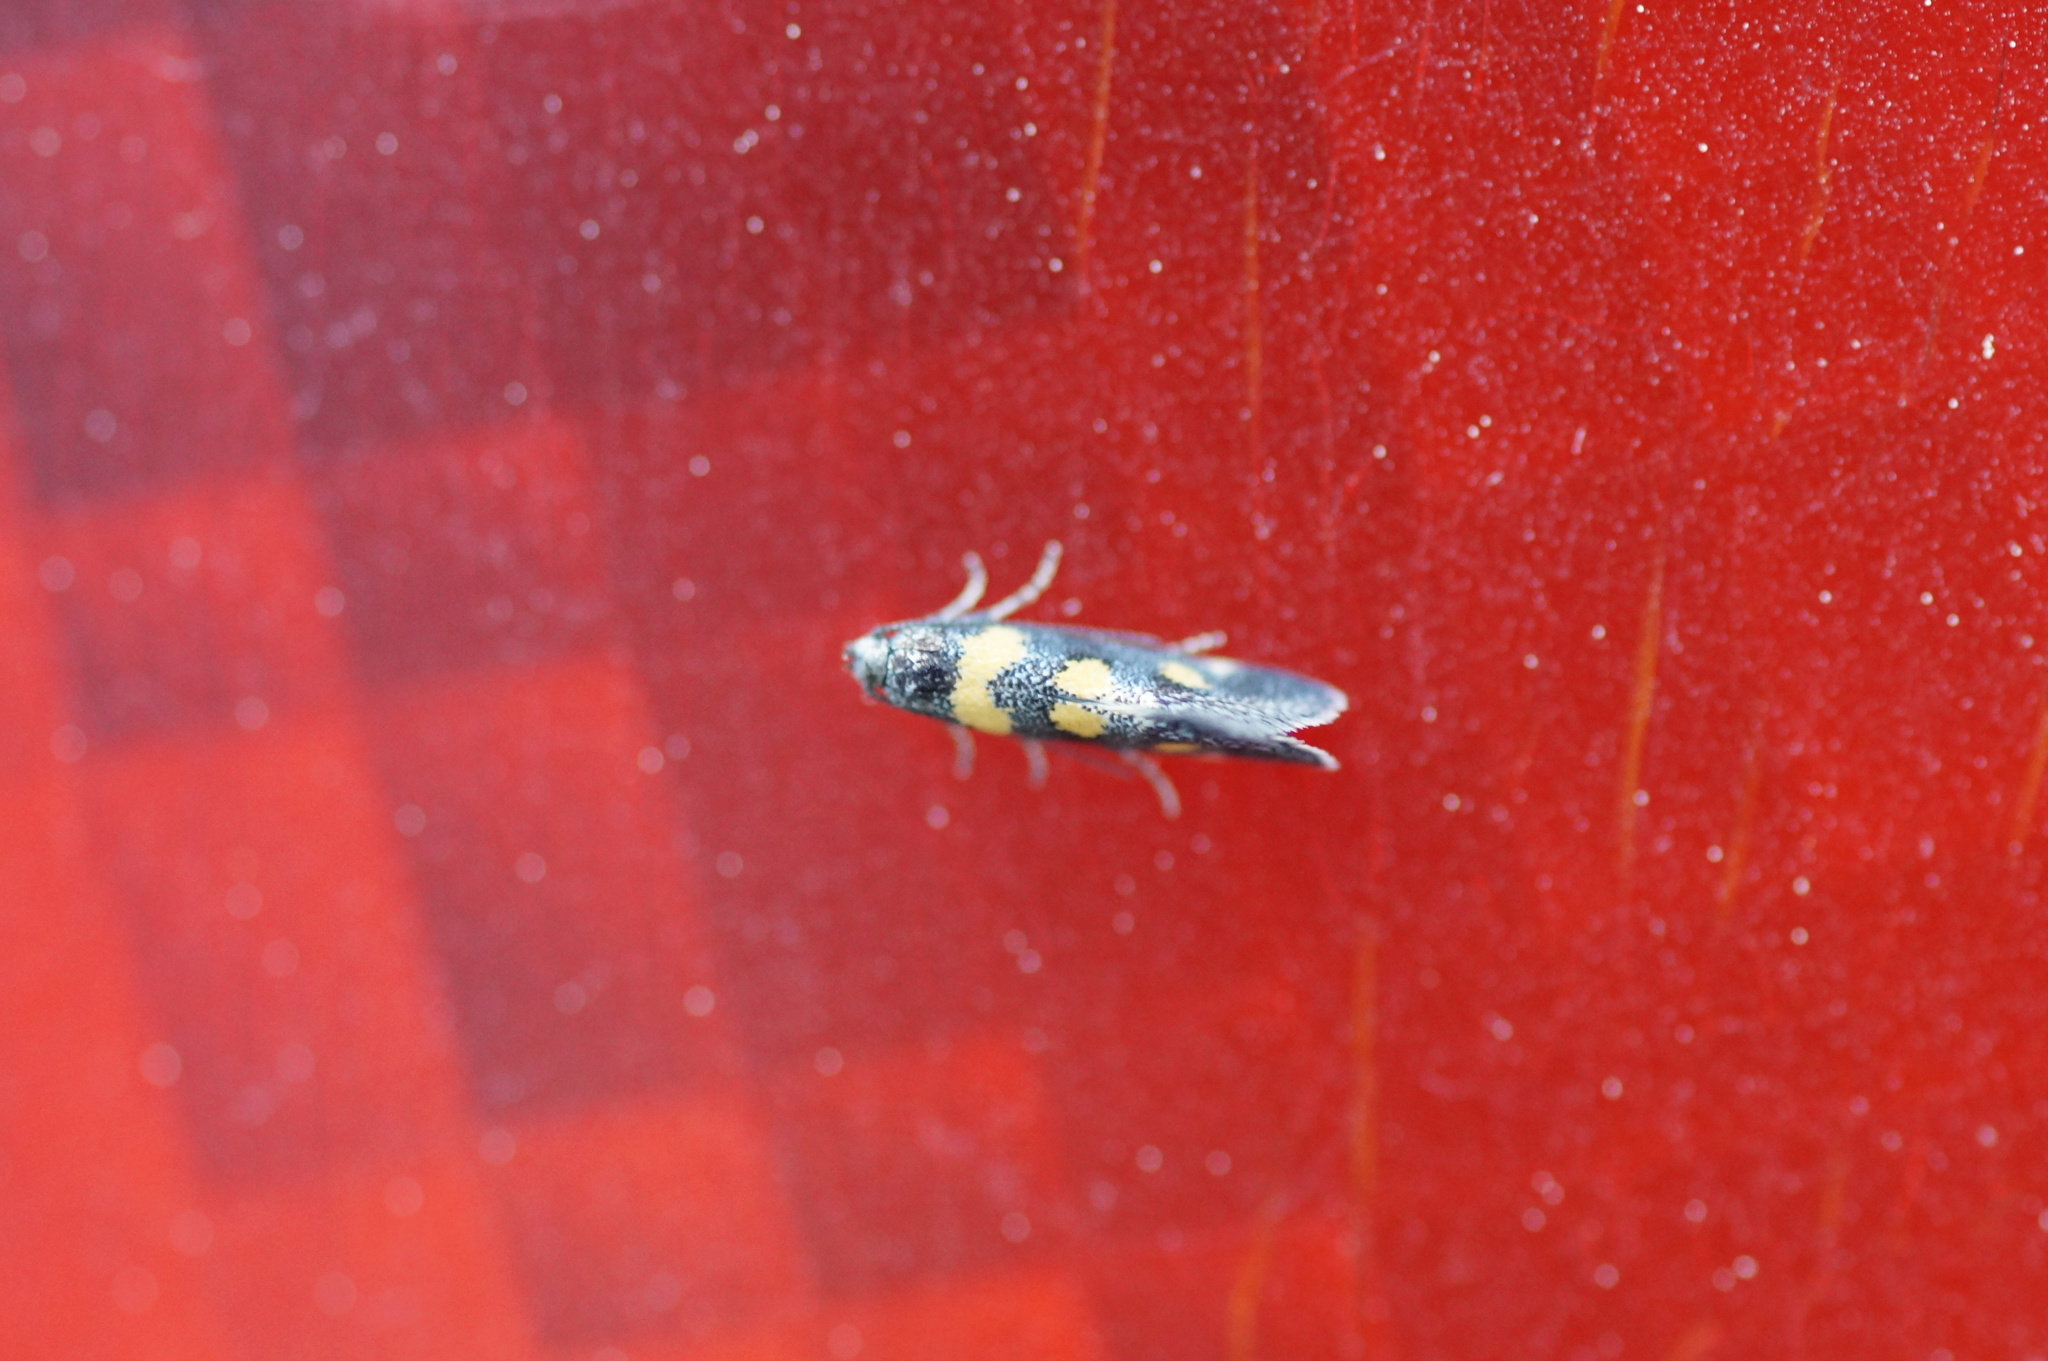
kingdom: Animalia
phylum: Arthropoda
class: Insecta
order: Lepidoptera
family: Gelechiidae
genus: Chrysoesthia
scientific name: Chrysoesthia sexguttella
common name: Moth
